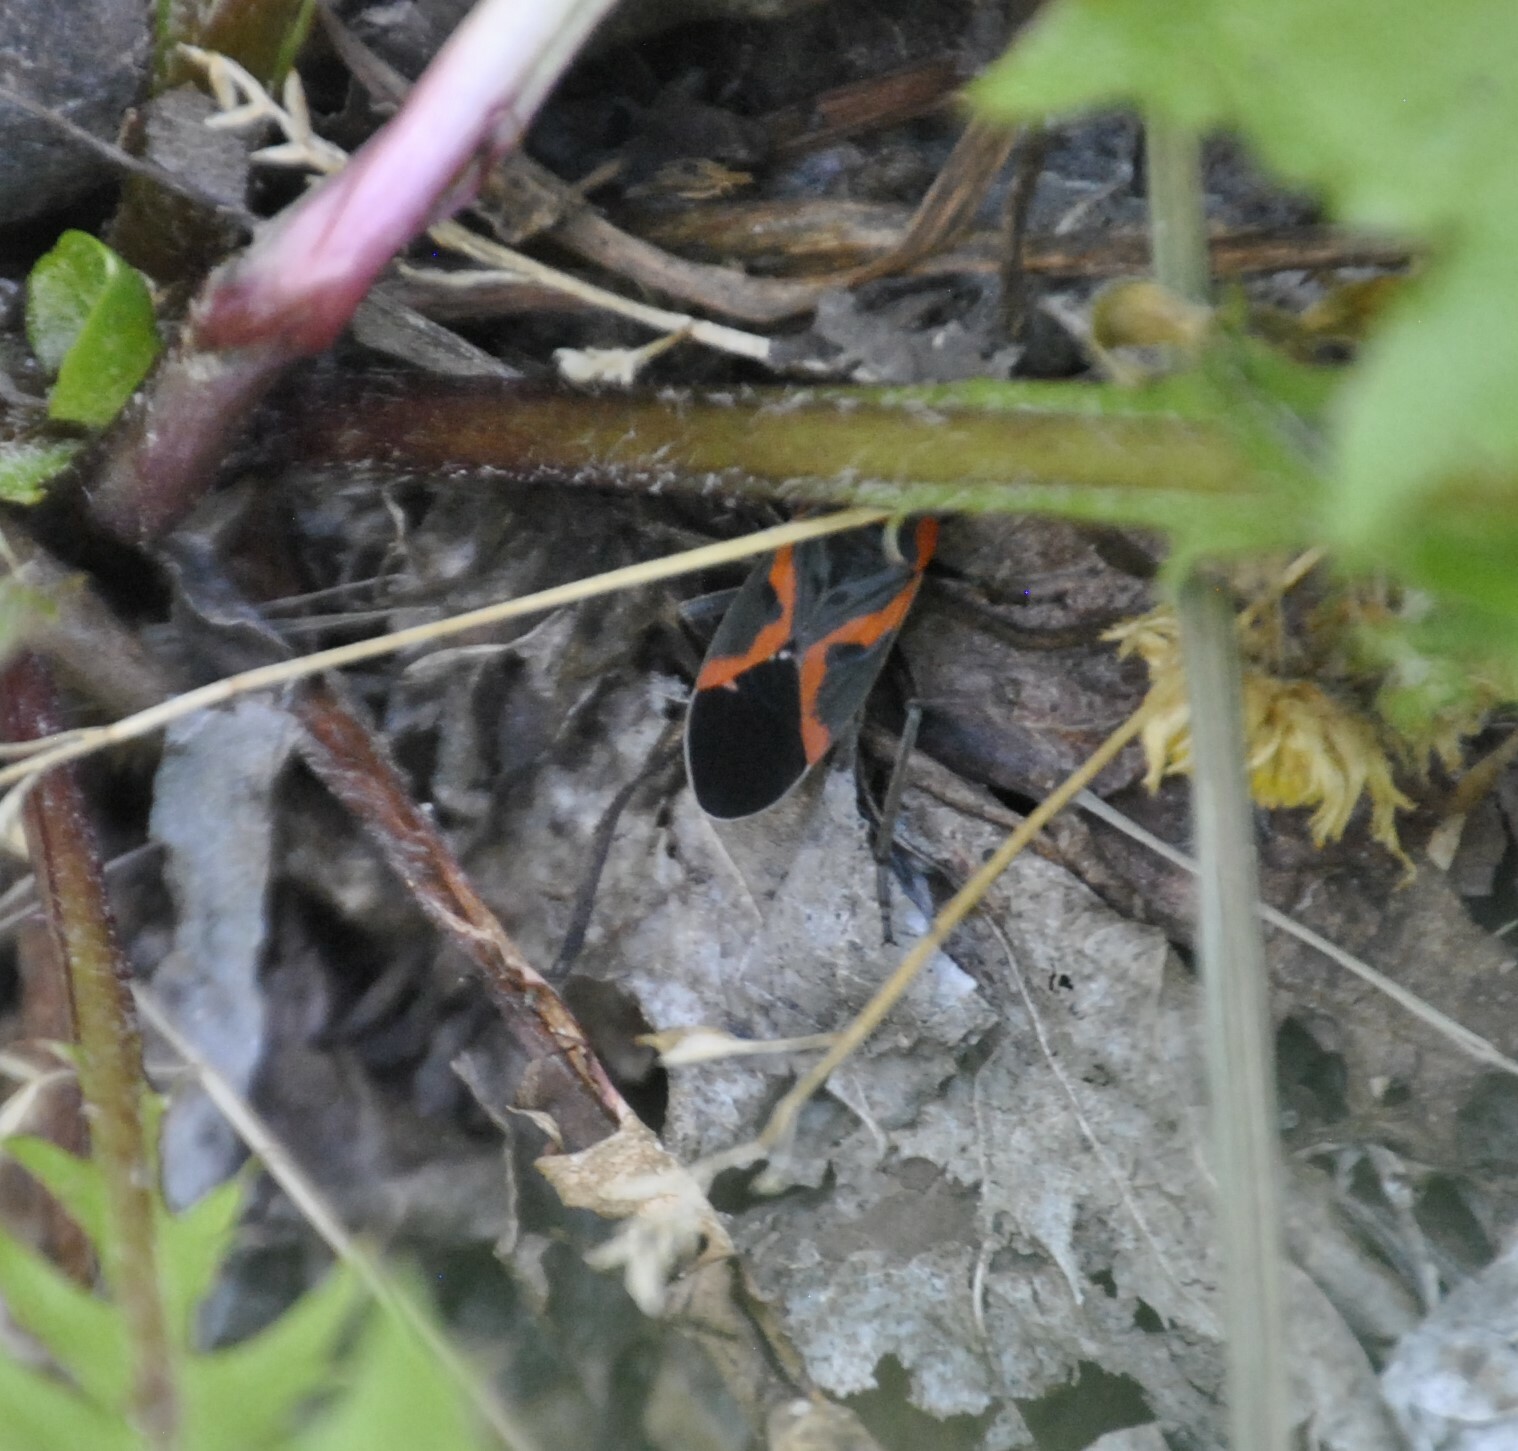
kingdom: Animalia
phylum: Arthropoda
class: Insecta
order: Hemiptera
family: Lygaeidae
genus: Lygaeus
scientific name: Lygaeus kalmii
